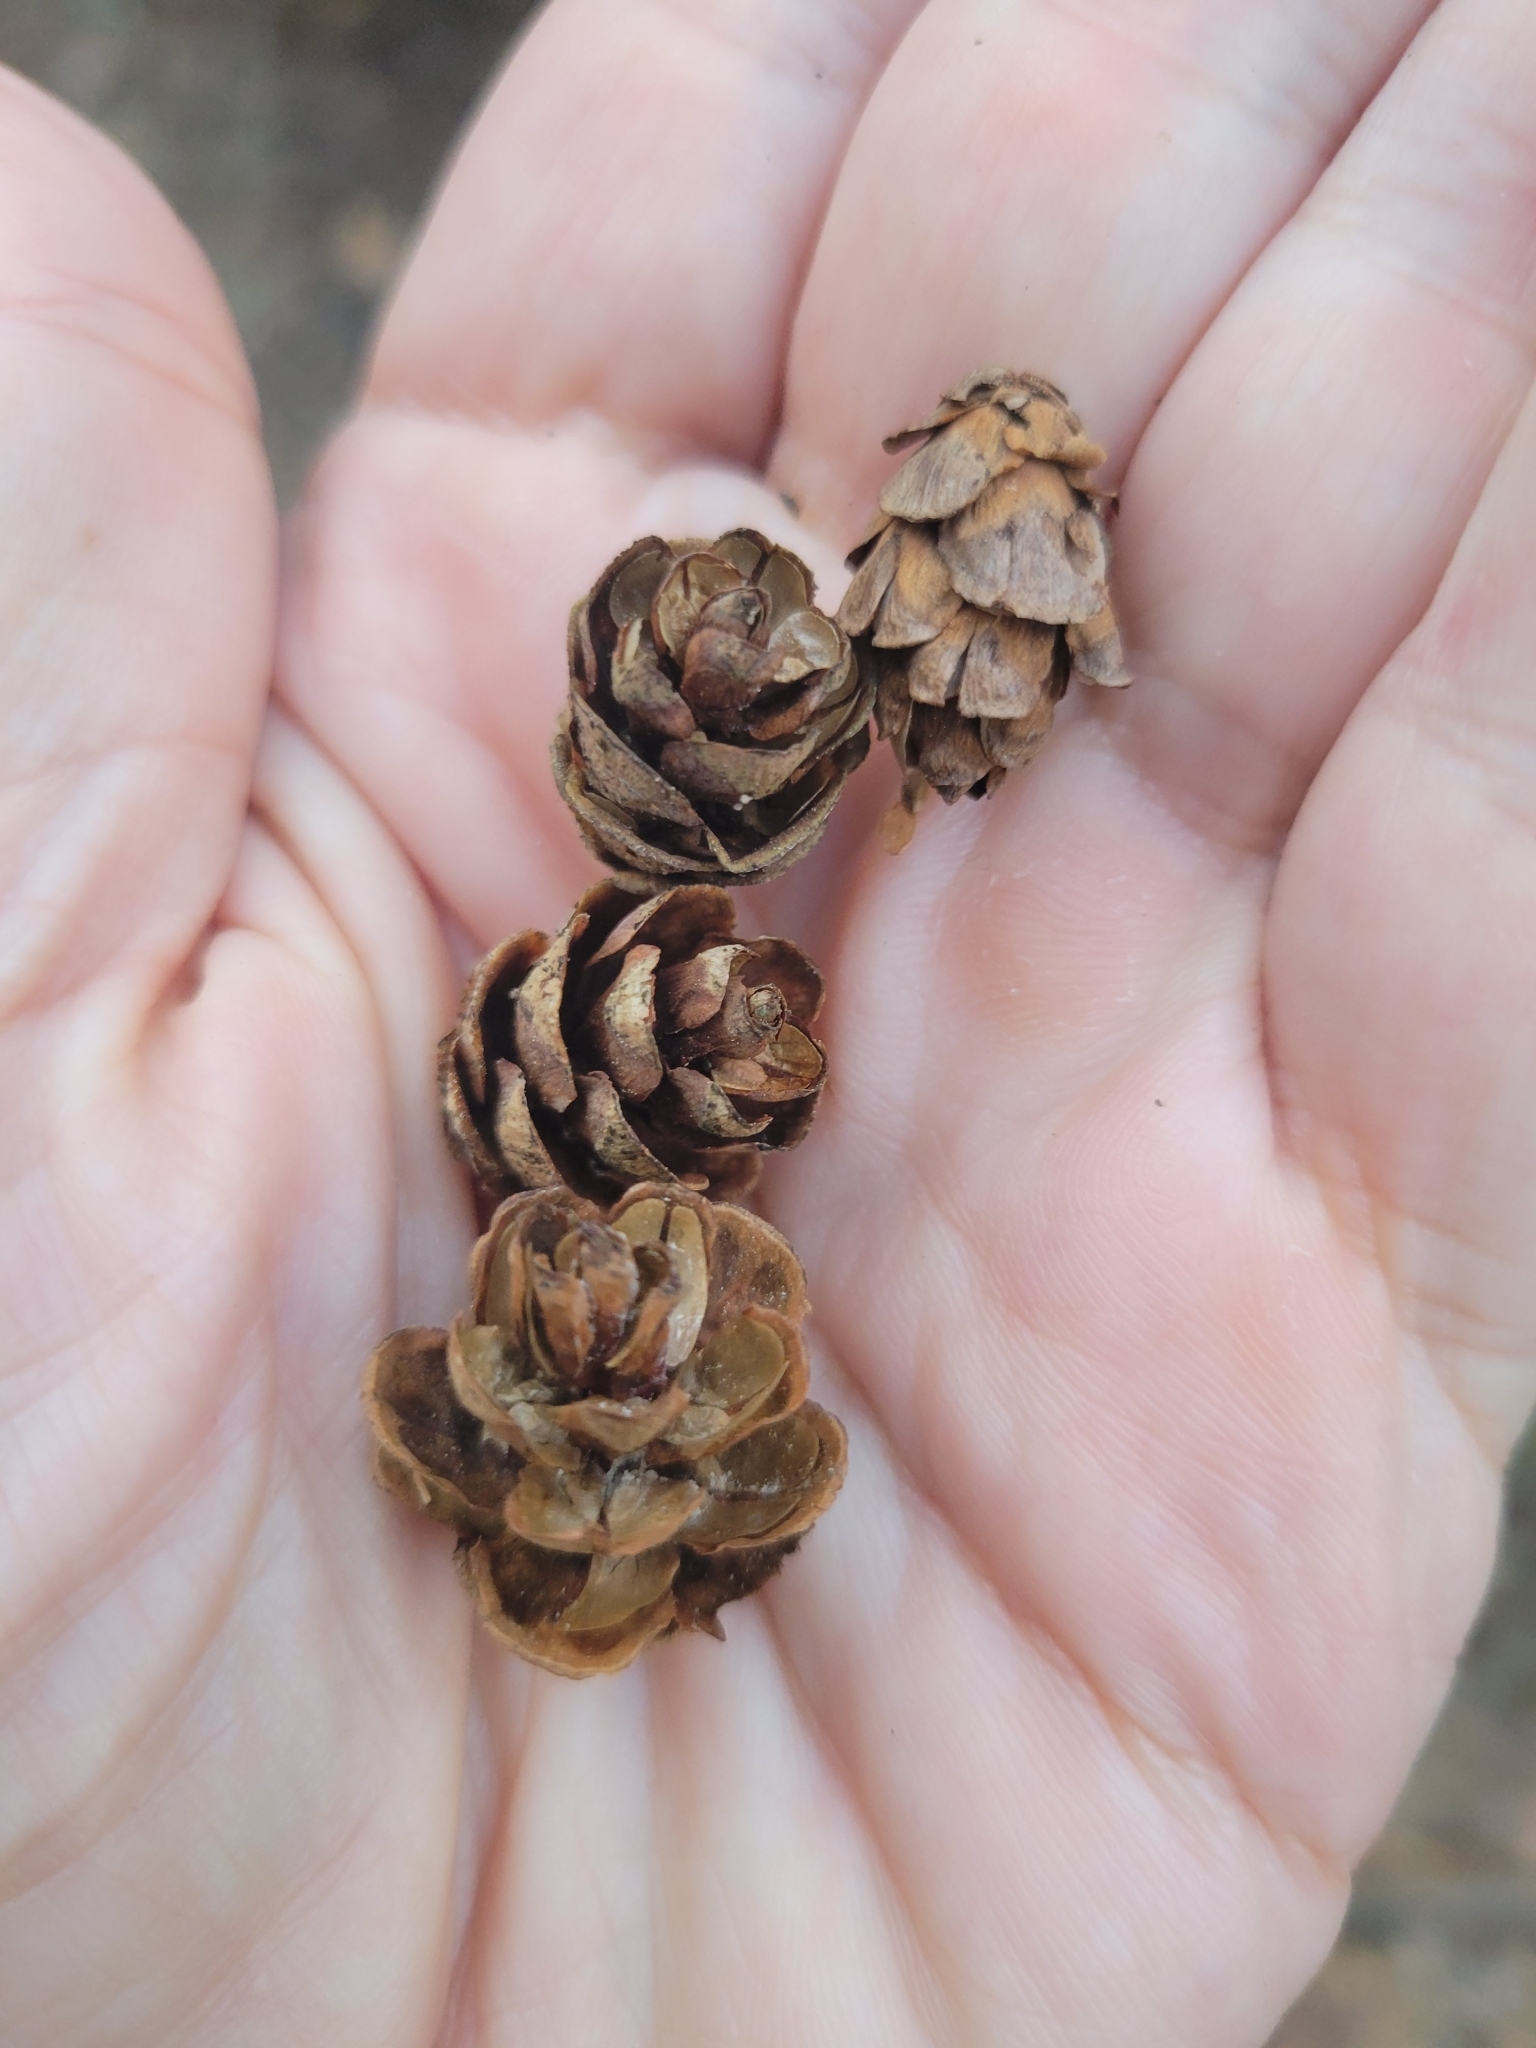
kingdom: Plantae
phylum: Tracheophyta
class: Pinopsida
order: Pinales
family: Pinaceae
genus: Tsuga
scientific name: Tsuga canadensis
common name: Eastern hemlock
